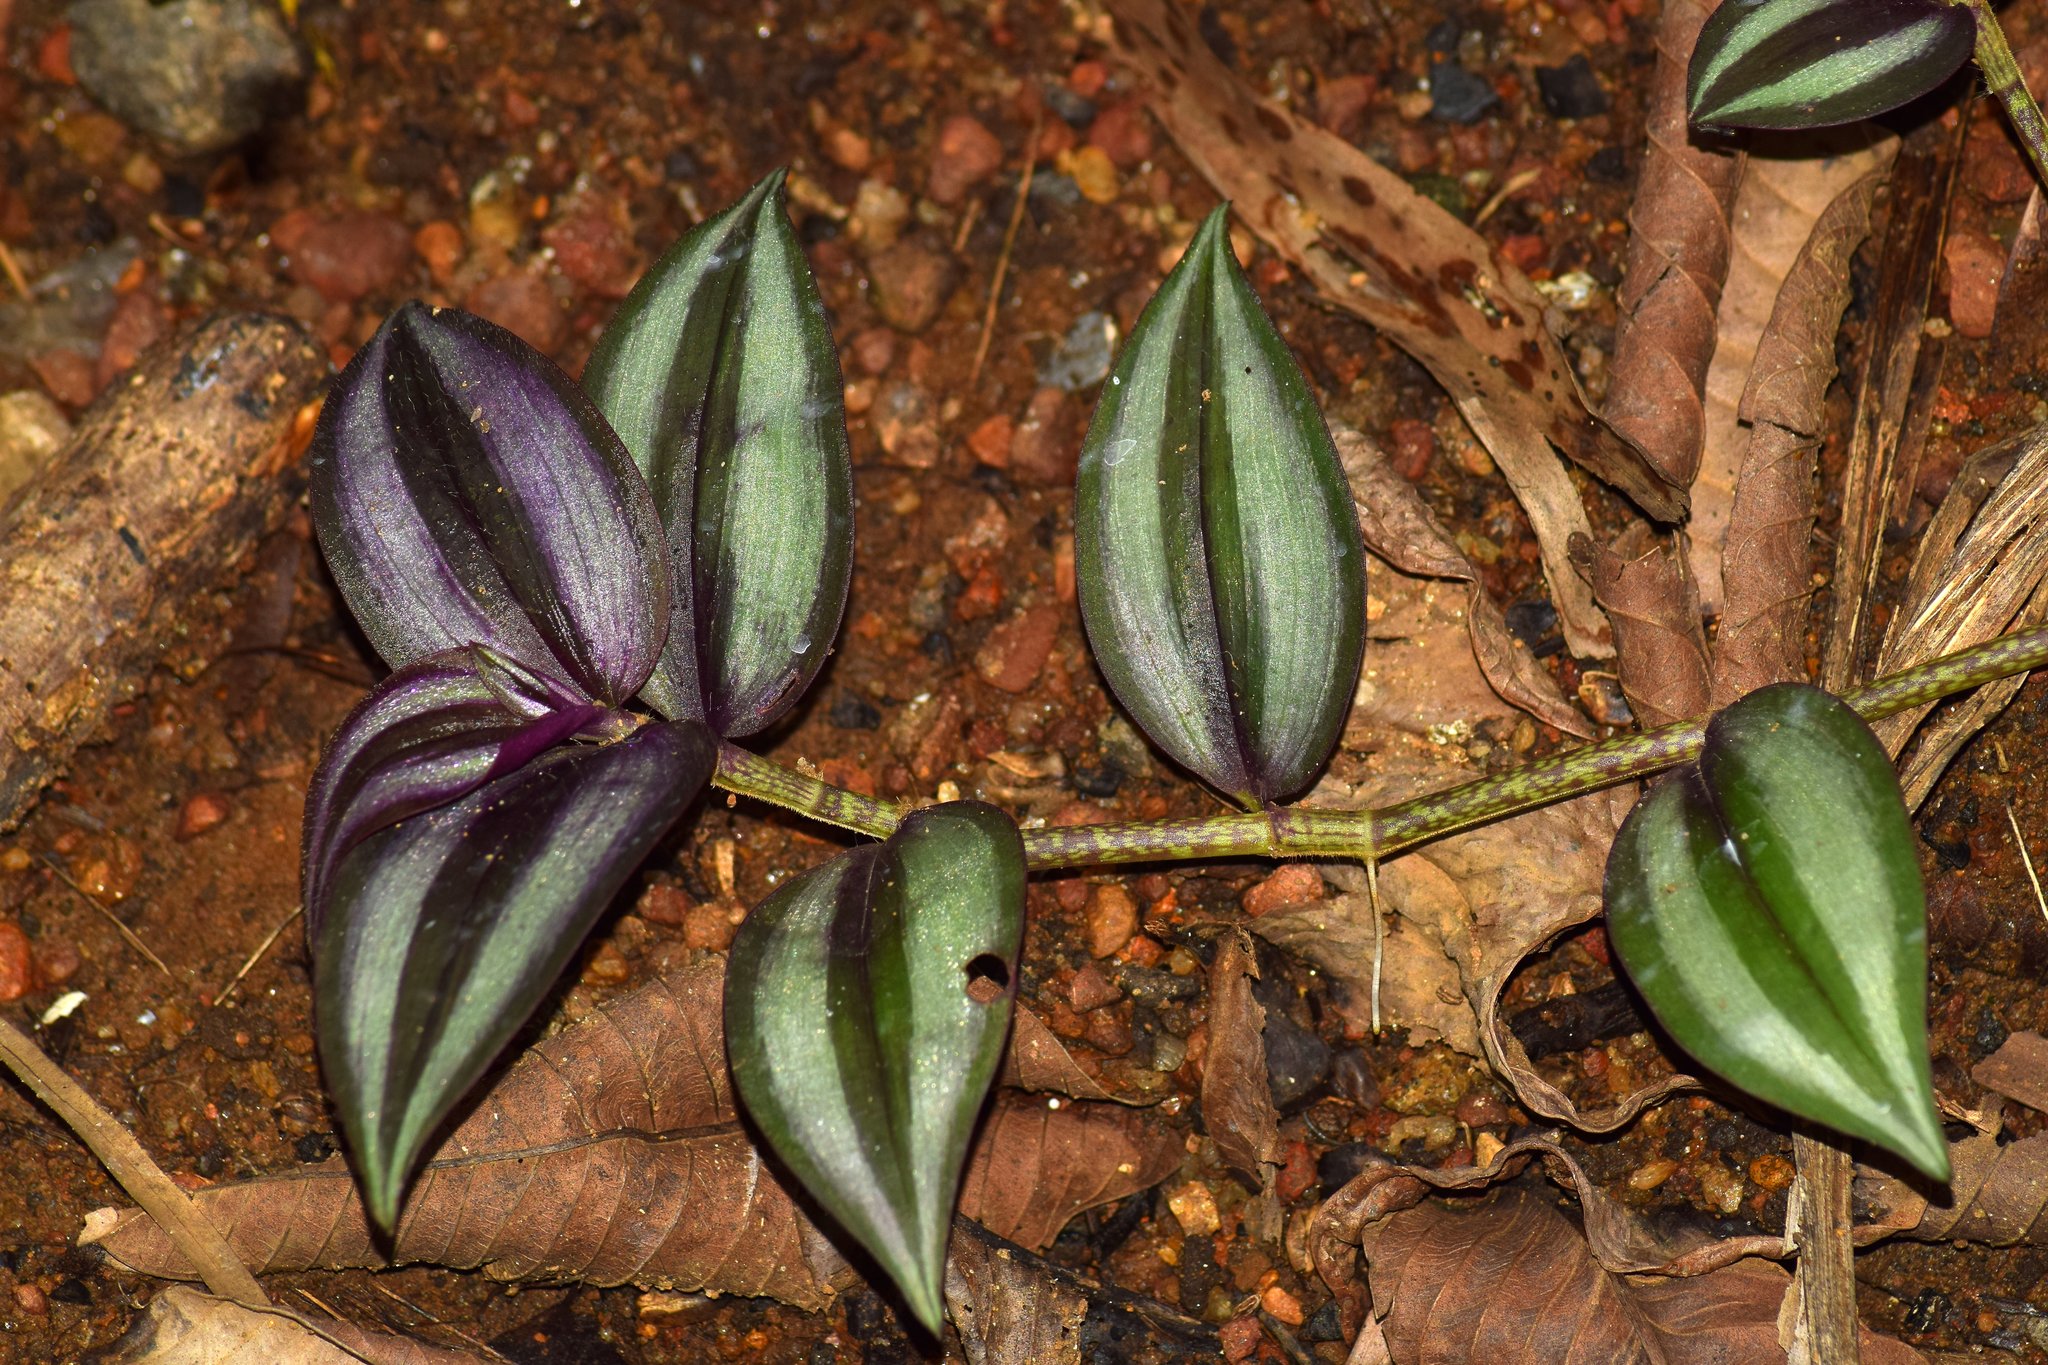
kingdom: Plantae
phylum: Tracheophyta
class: Liliopsida
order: Commelinales
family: Commelinaceae
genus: Tradescantia
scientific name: Tradescantia zebrina
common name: Inchplant
